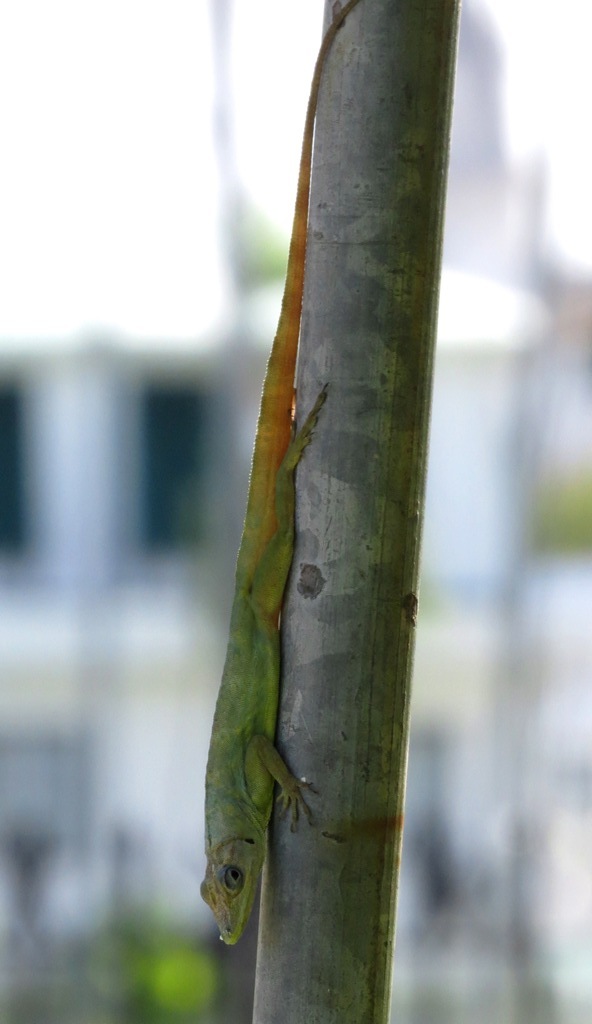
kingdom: Animalia
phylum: Chordata
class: Squamata
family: Dactyloidae
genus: Anolis
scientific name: Anolis aeneus
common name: Bronze anole
